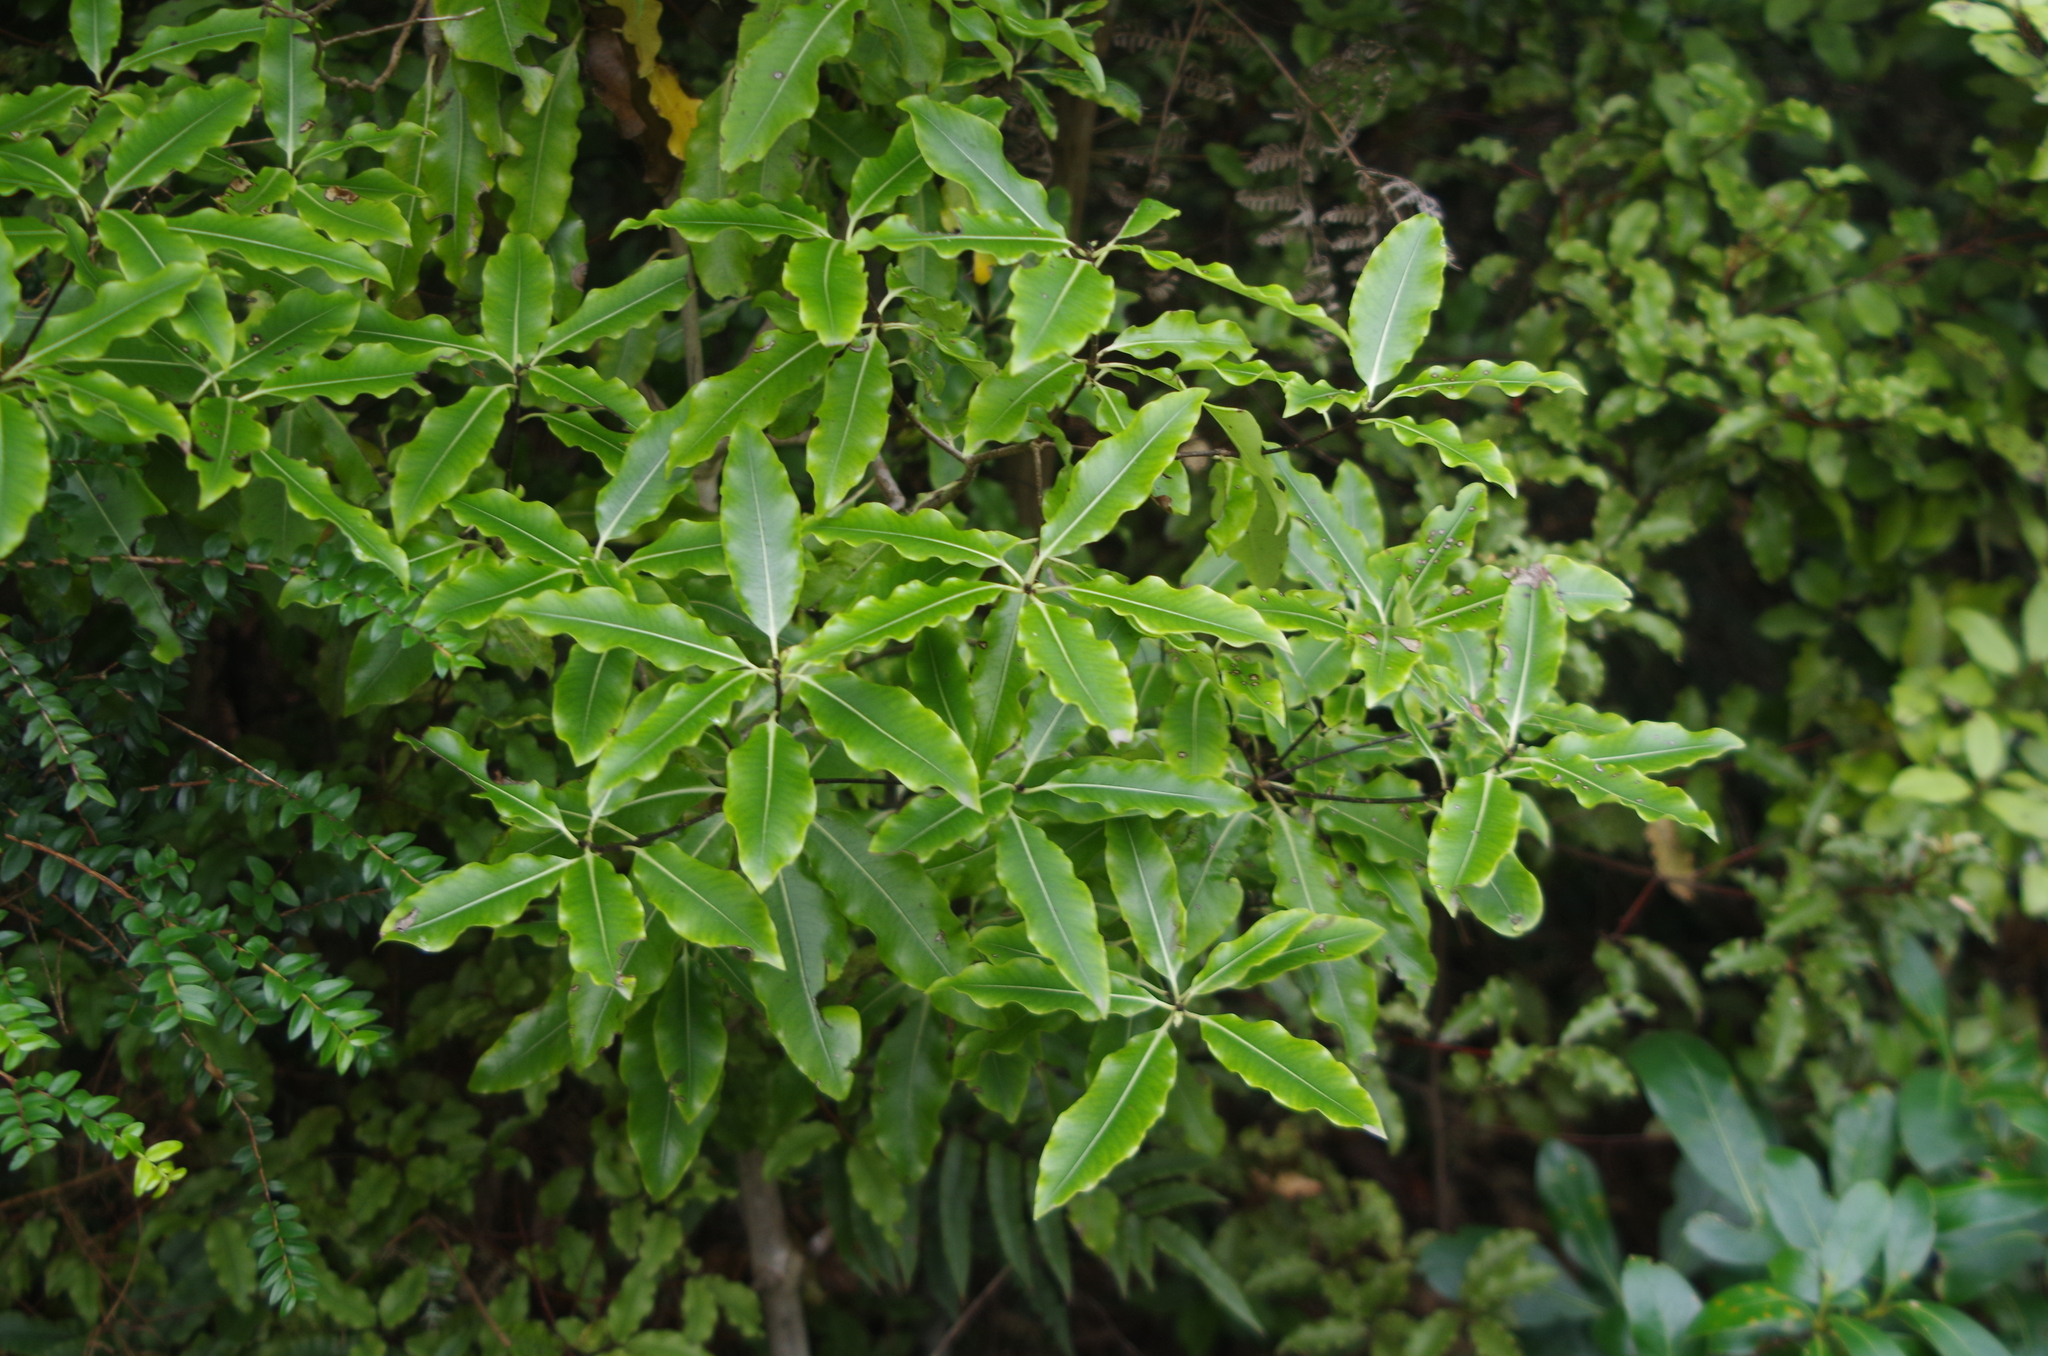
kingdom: Plantae
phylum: Tracheophyta
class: Magnoliopsida
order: Apiales
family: Pittosporaceae
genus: Pittosporum
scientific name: Pittosporum eugenioides
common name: Lemonwood
